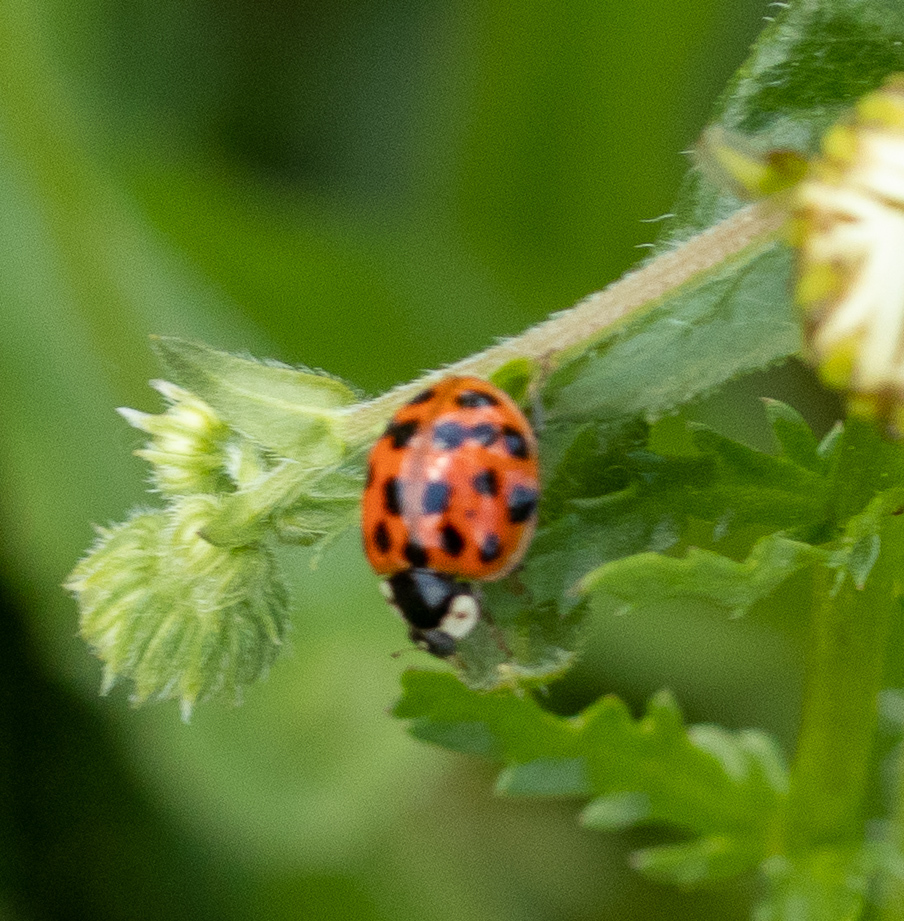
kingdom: Animalia
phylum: Arthropoda
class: Insecta
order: Coleoptera
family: Coccinellidae
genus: Harmonia
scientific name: Harmonia axyridis
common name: Harlequin ladybird
